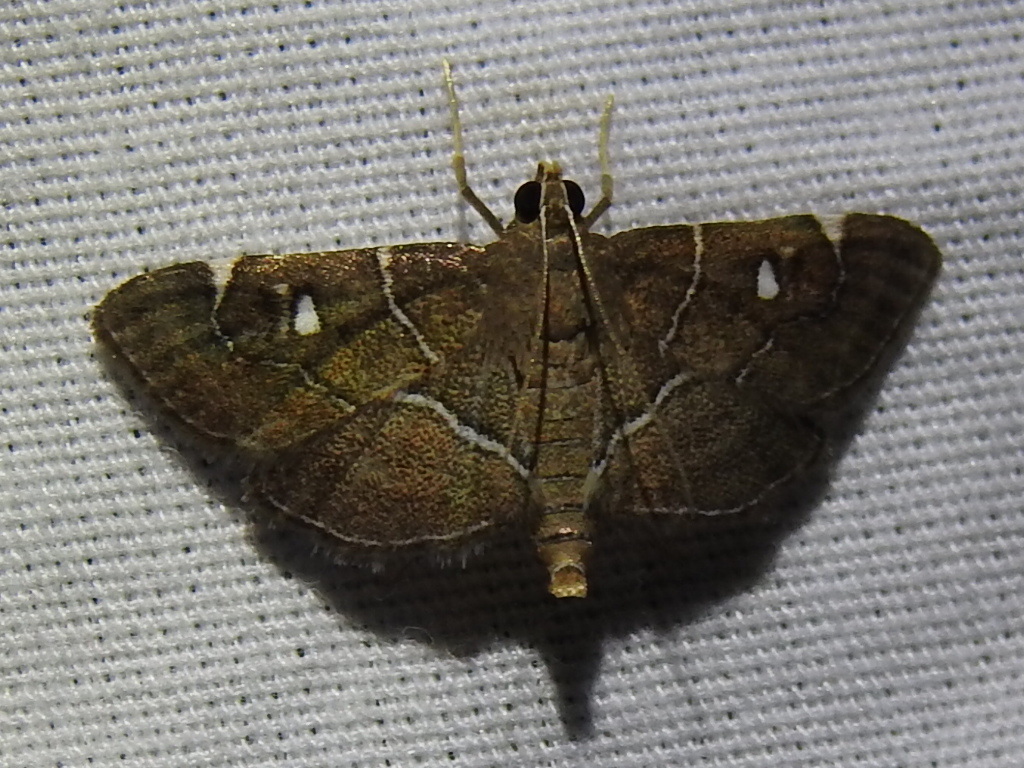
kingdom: Animalia
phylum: Arthropoda
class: Insecta
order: Lepidoptera
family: Crambidae
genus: Lamprosema
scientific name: Lamprosema victoriae
